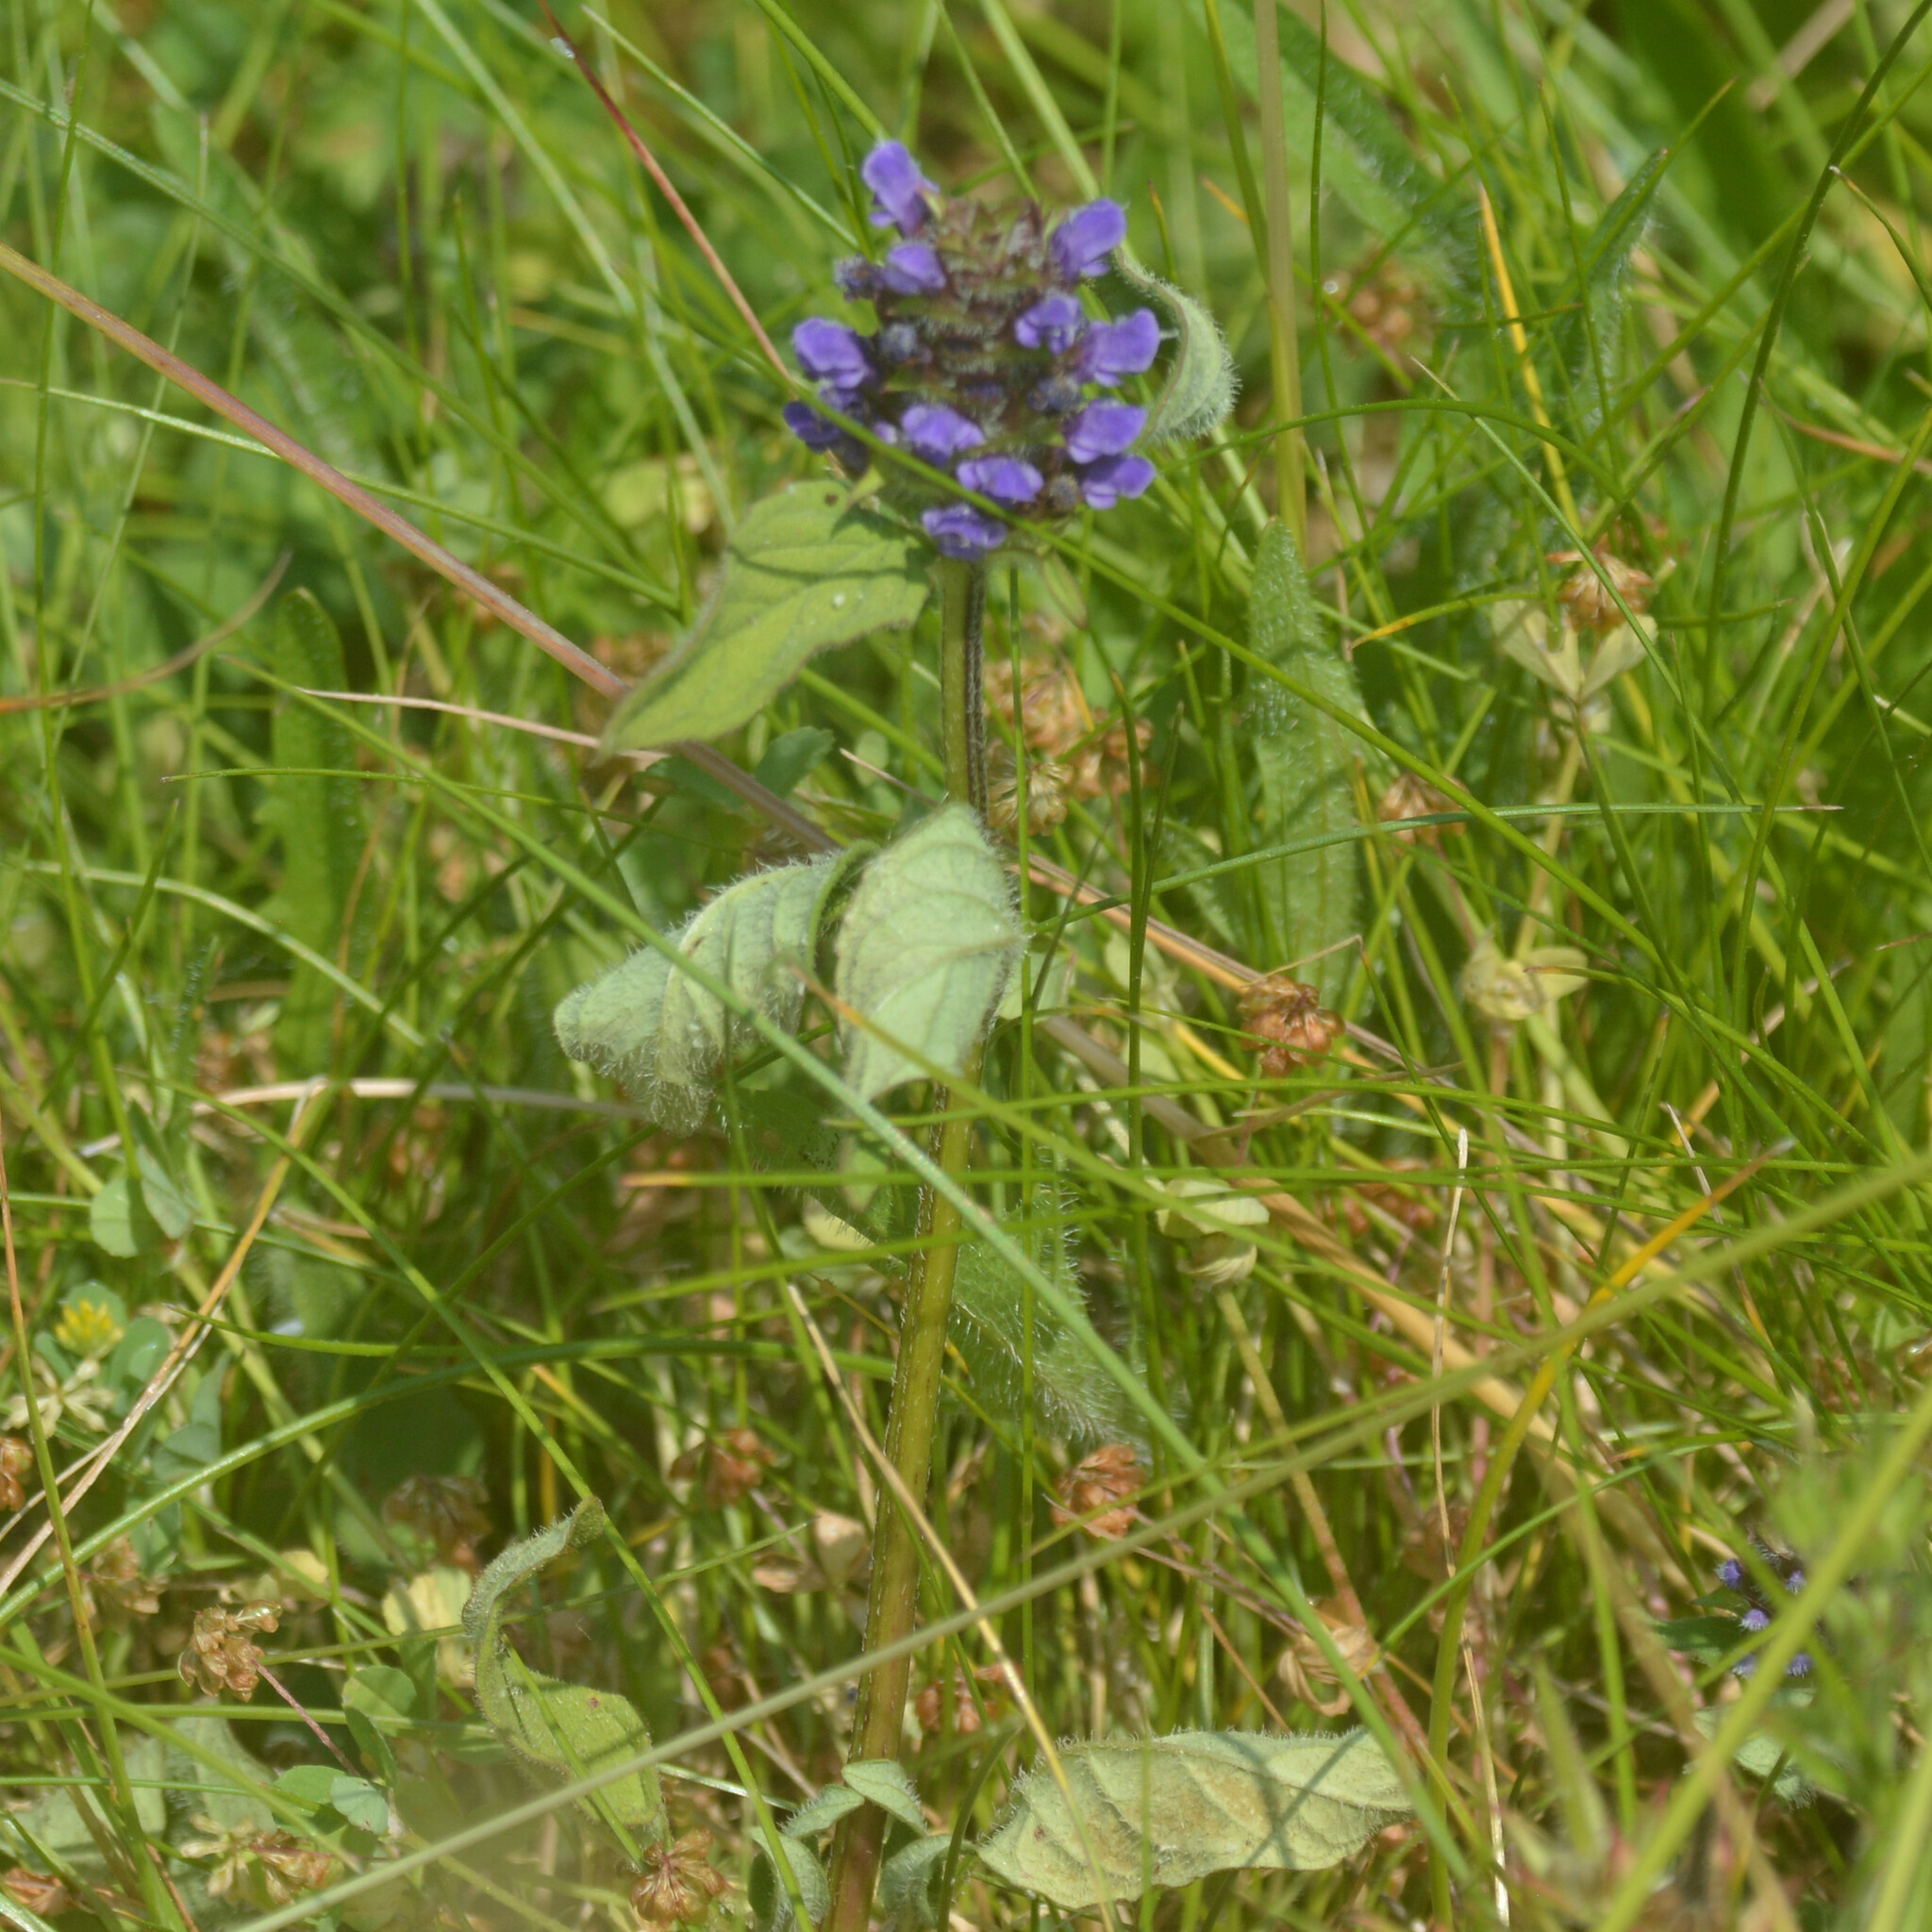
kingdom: Plantae
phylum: Tracheophyta
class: Magnoliopsida
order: Lamiales
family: Lamiaceae
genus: Prunella
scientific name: Prunella vulgaris
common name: Heal-all
